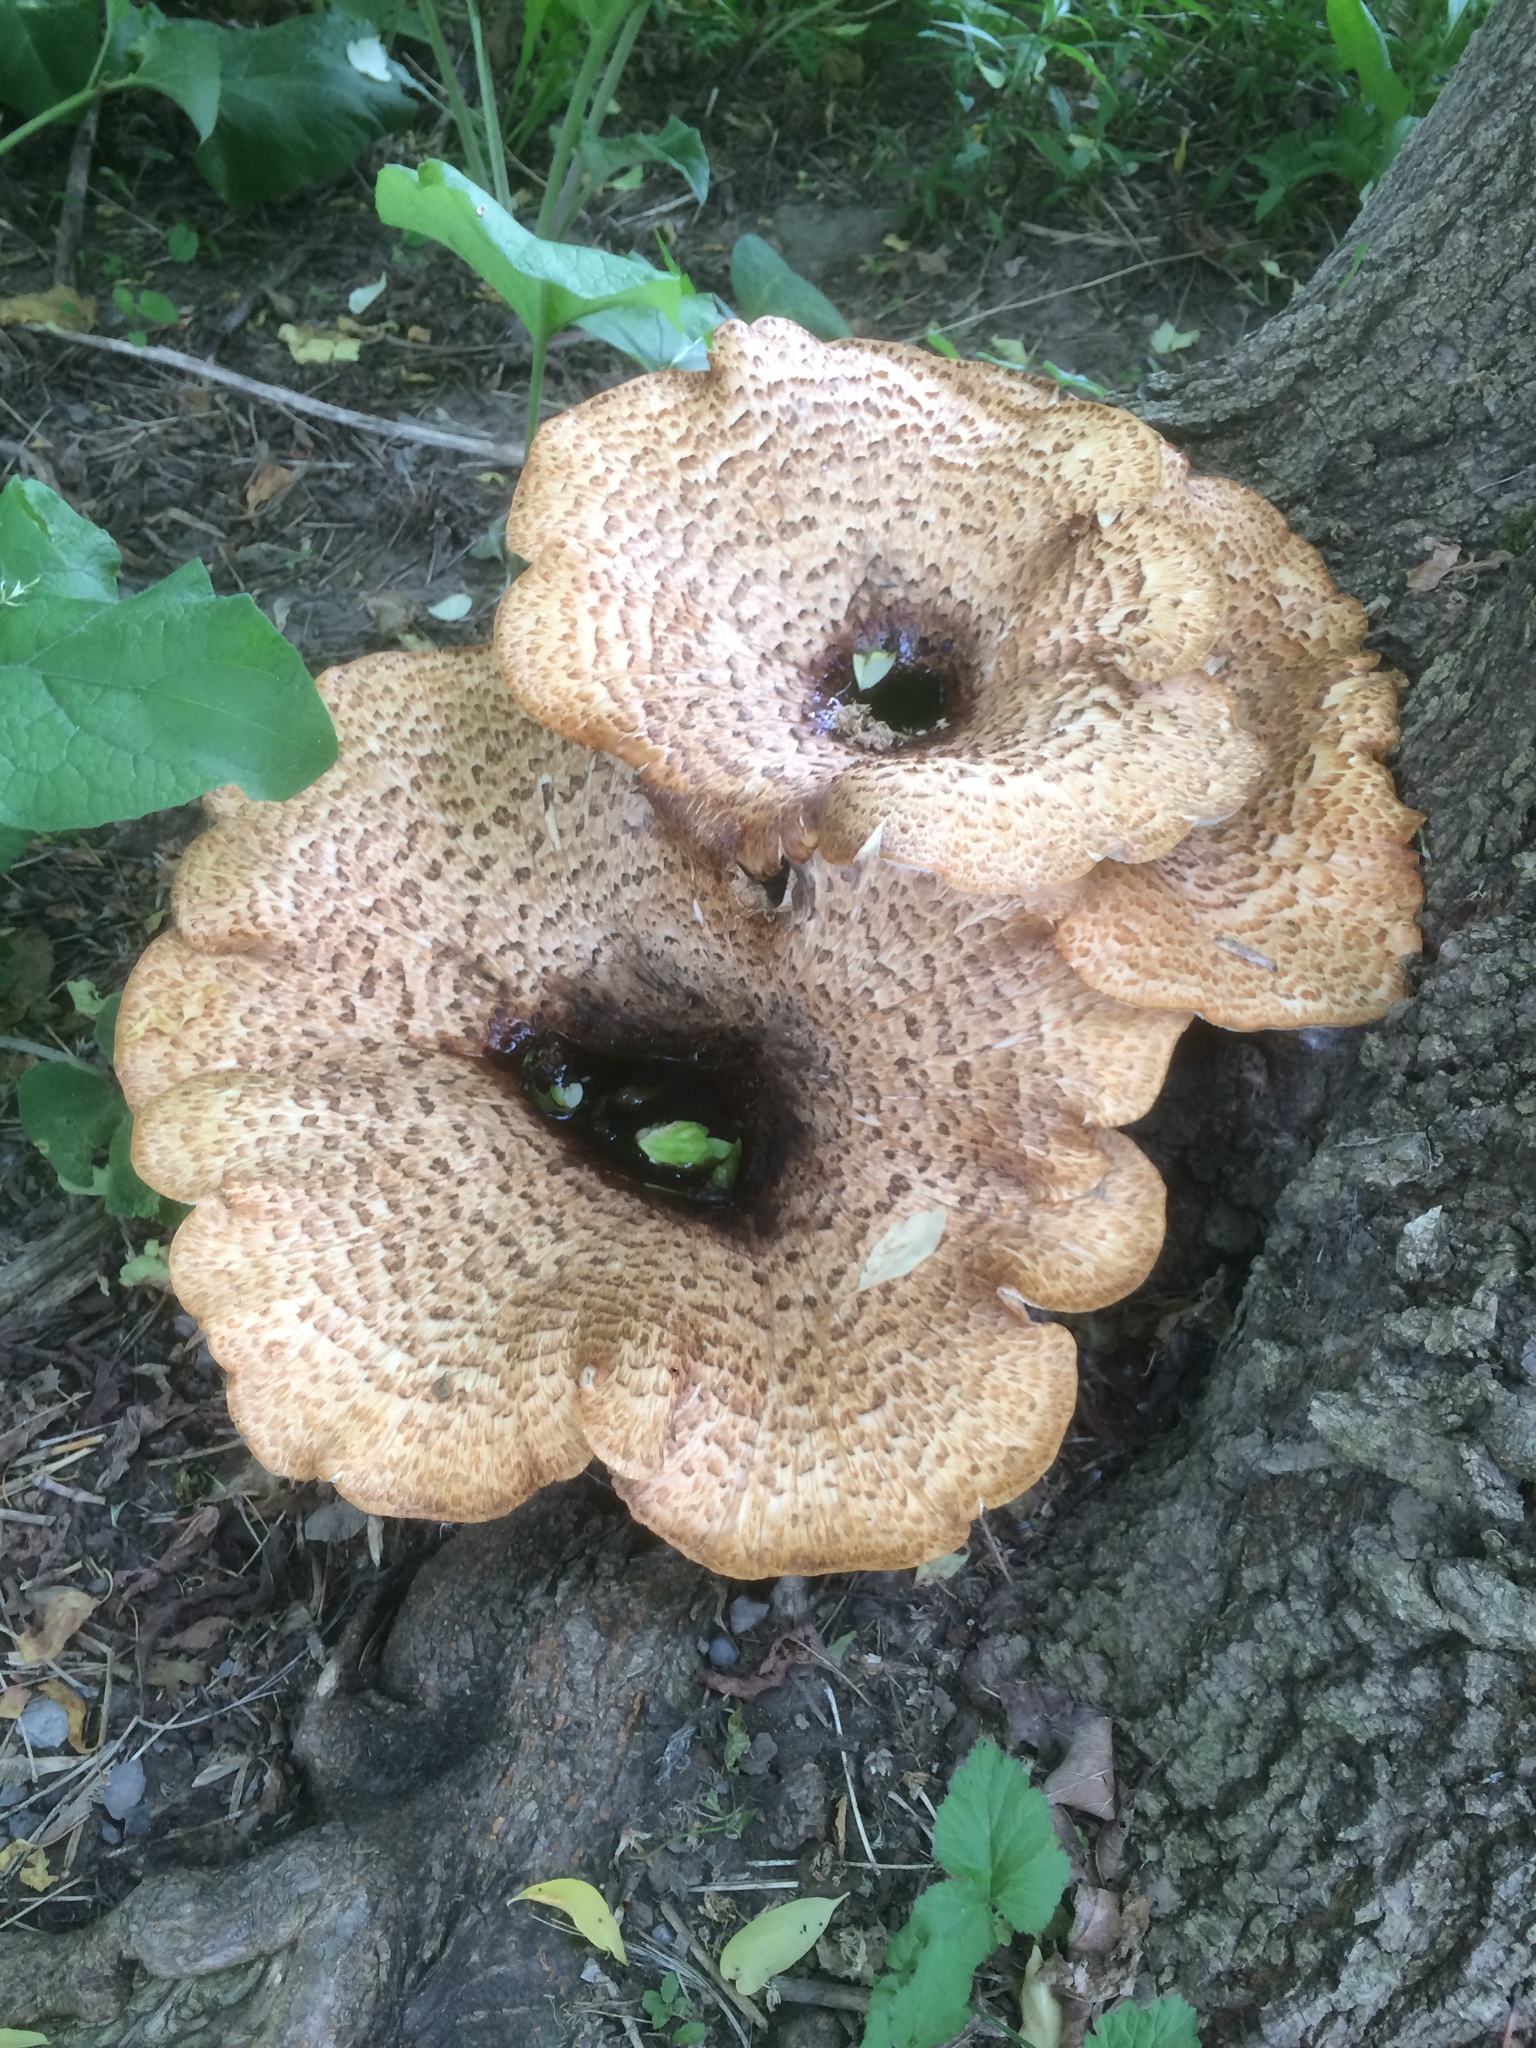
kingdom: Fungi
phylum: Basidiomycota
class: Agaricomycetes
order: Polyporales
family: Polyporaceae
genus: Cerioporus
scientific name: Cerioporus squamosus
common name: Dryad's saddle
